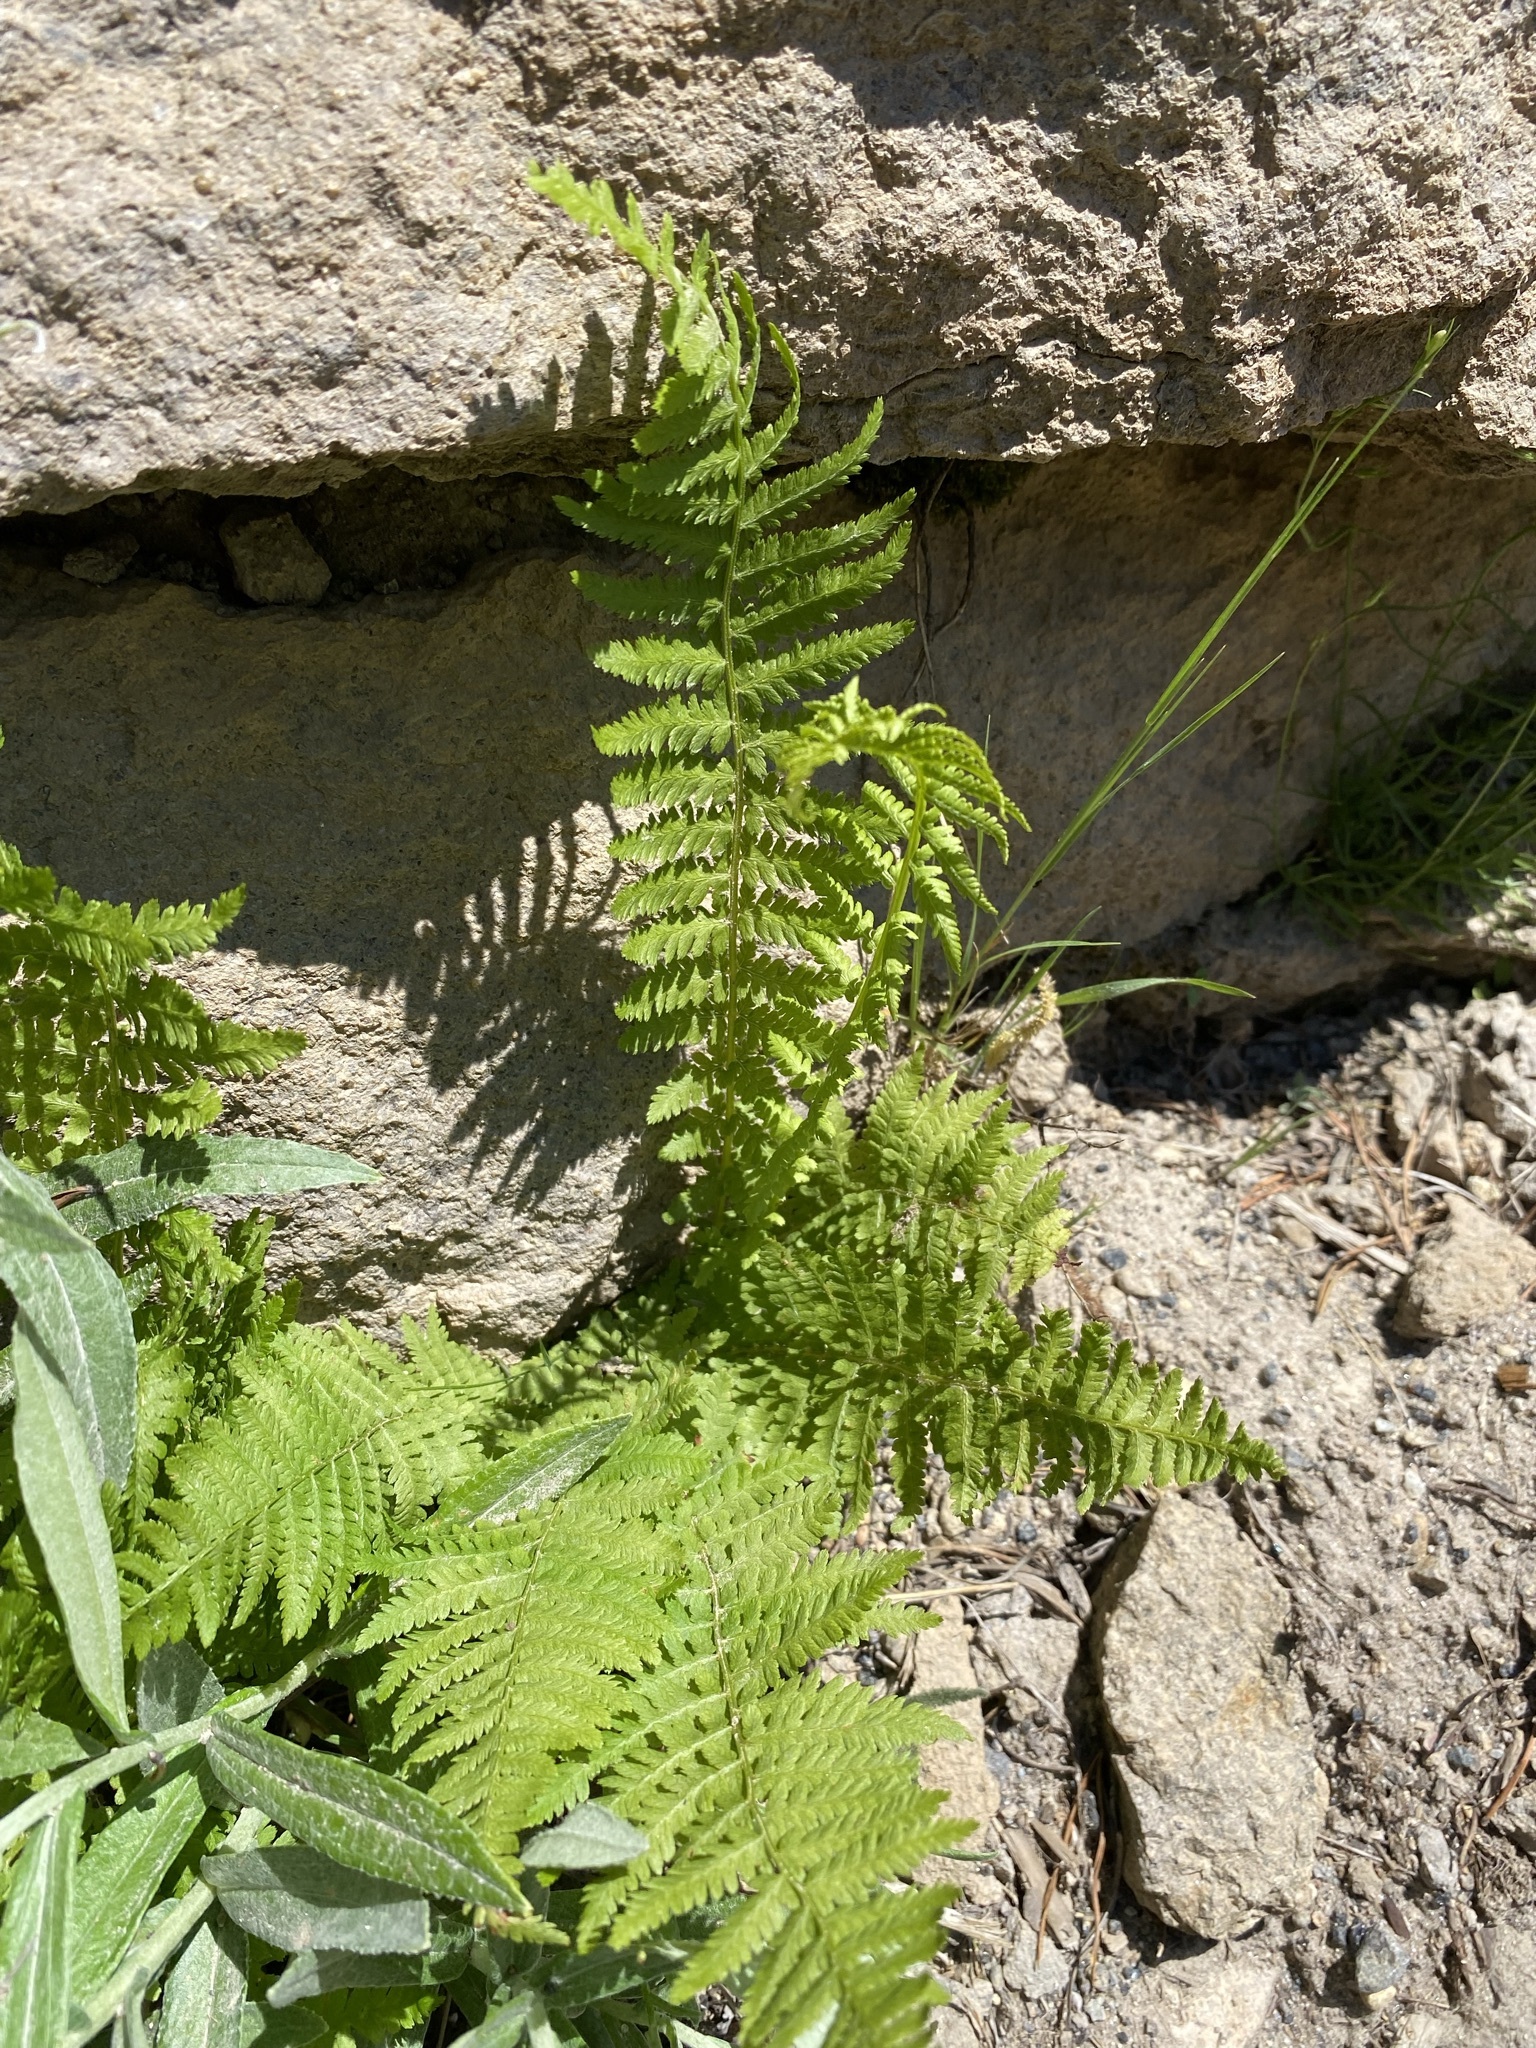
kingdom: Plantae
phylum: Tracheophyta
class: Polypodiopsida
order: Polypodiales
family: Dryopteridaceae
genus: Dryopteris
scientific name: Dryopteris filix-mas
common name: Male fern
